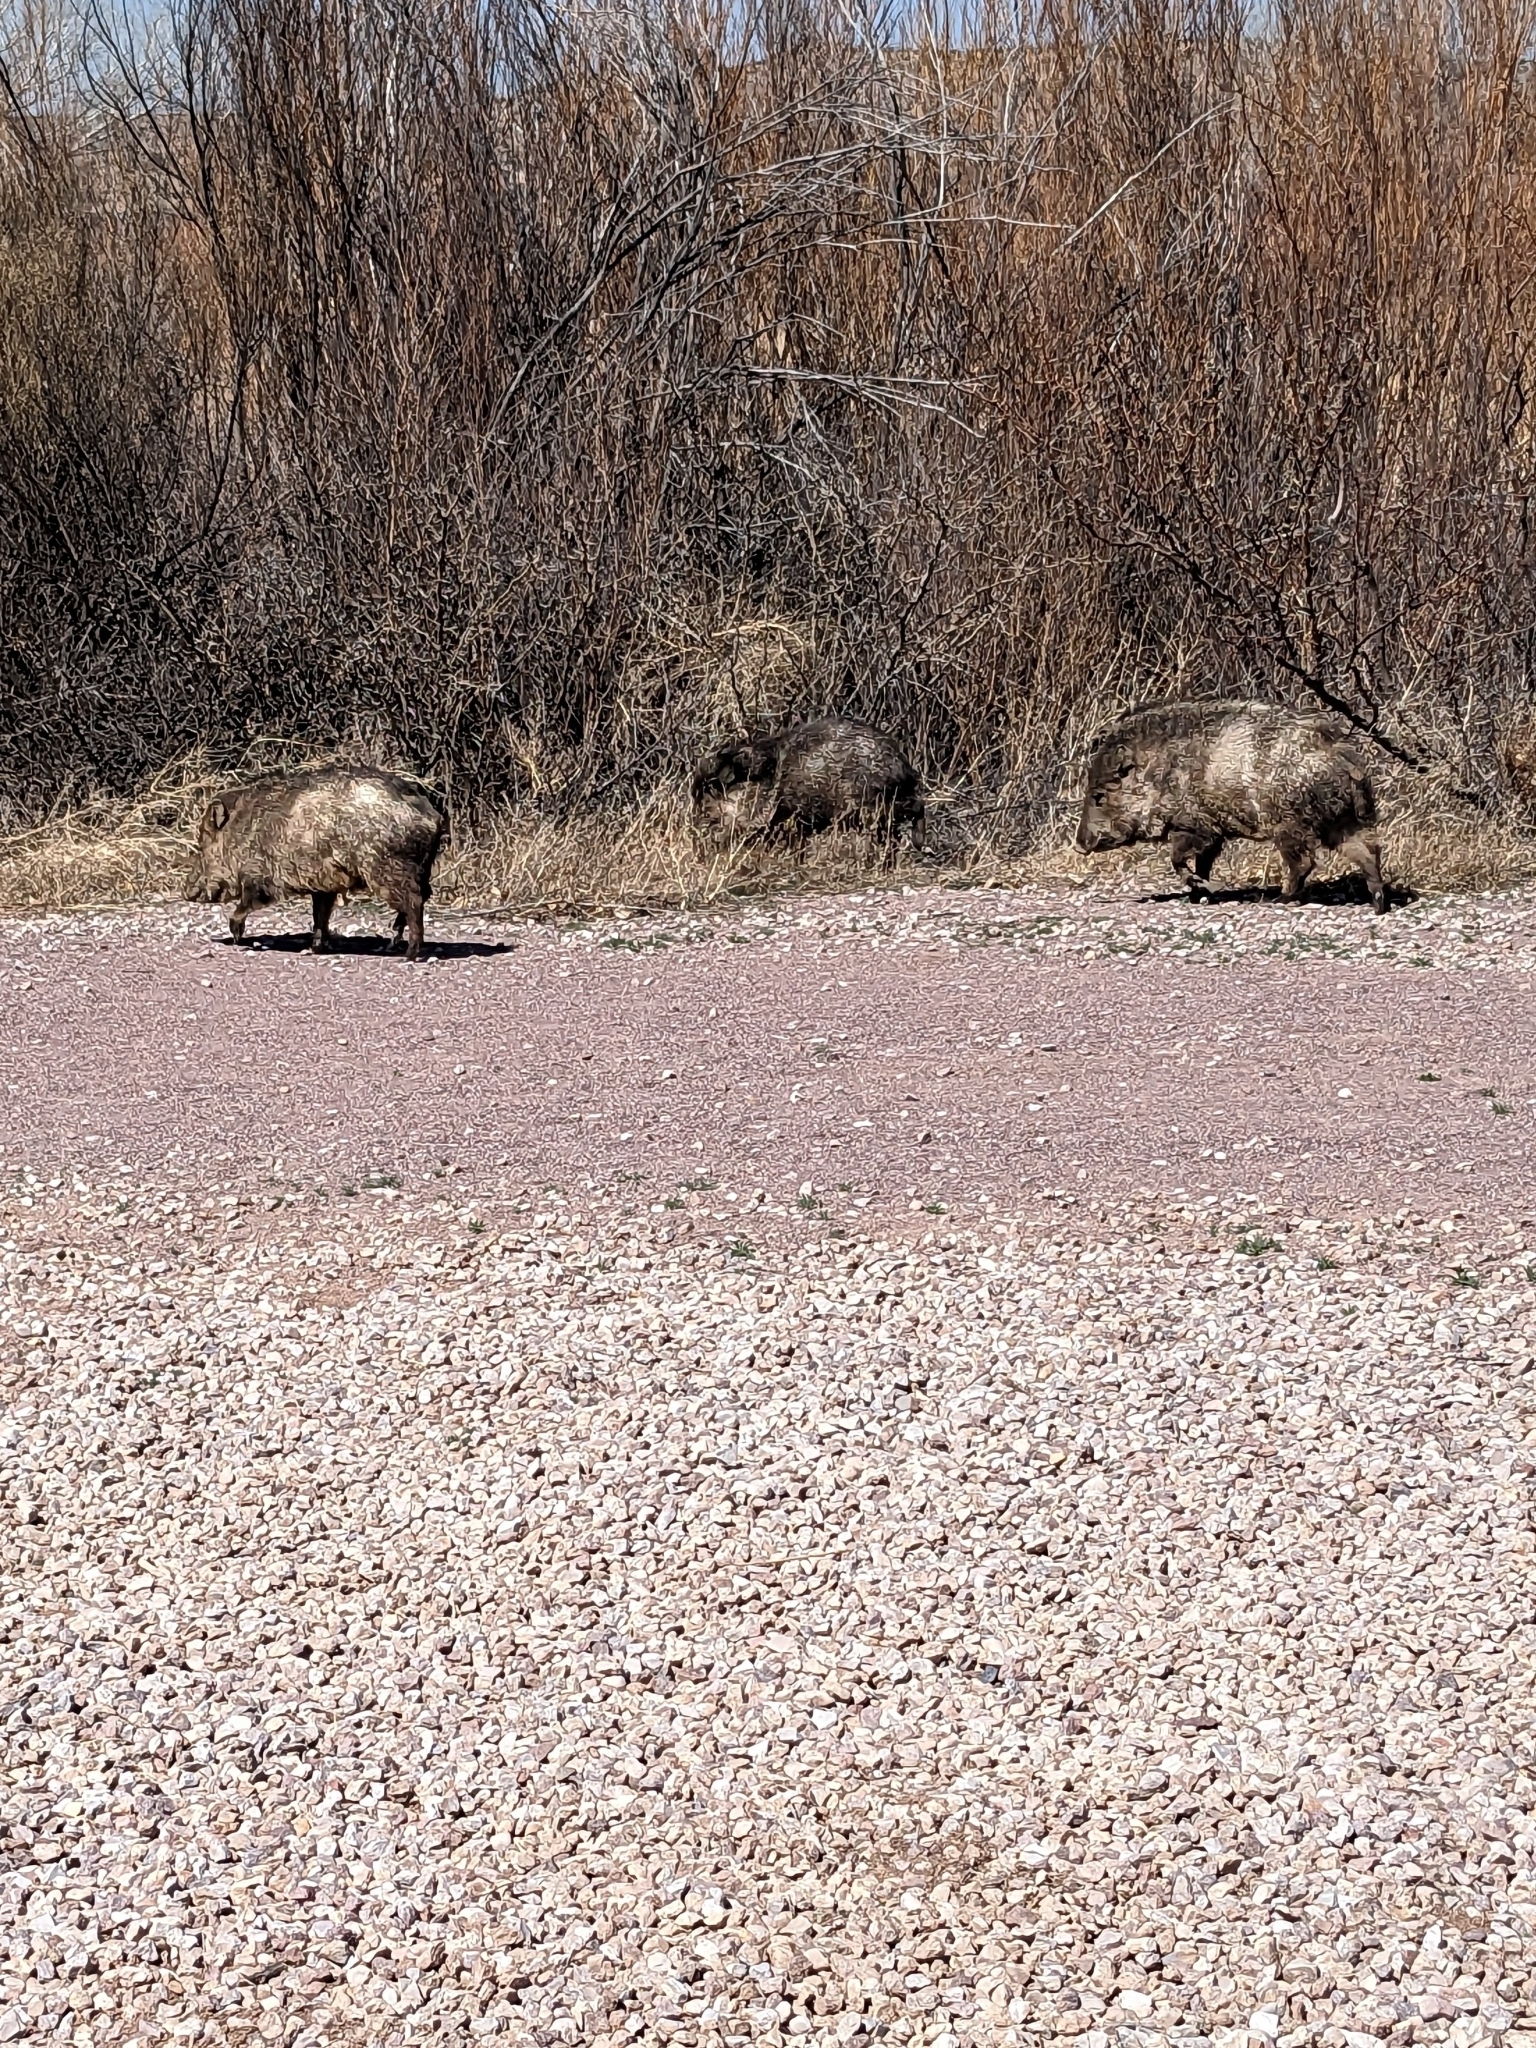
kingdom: Animalia
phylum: Chordata
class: Mammalia
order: Artiodactyla
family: Tayassuidae
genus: Pecari
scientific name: Pecari tajacu
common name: Collared peccary
